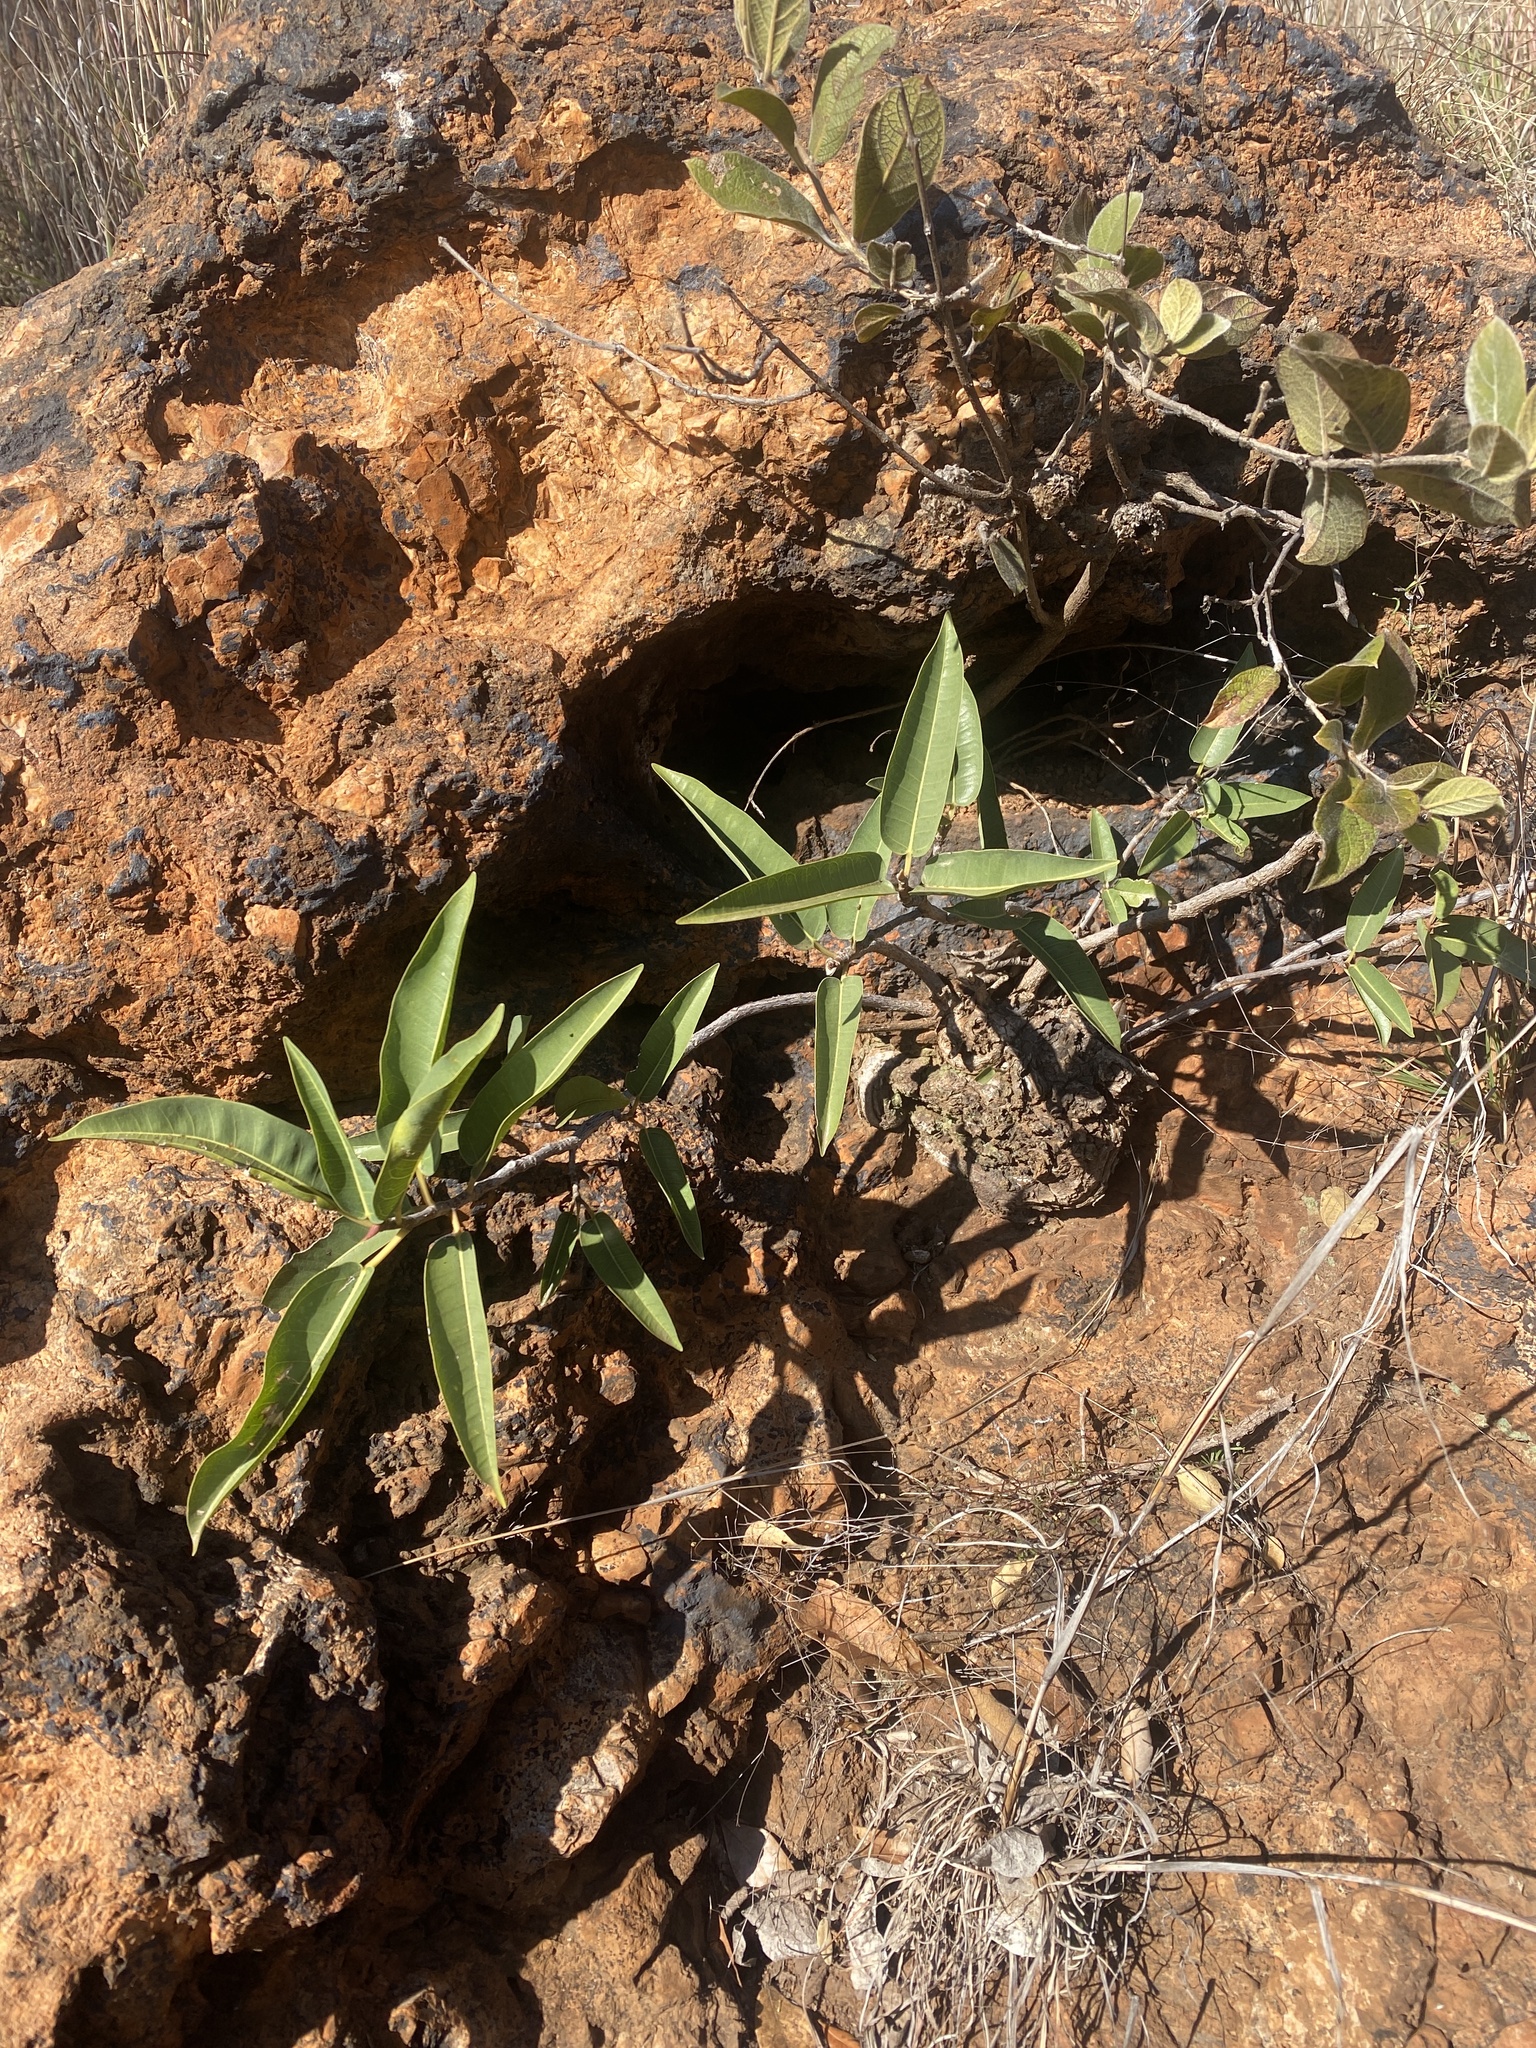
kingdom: Plantae
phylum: Tracheophyta
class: Magnoliopsida
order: Rosales
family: Moraceae
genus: Ficus
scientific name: Ficus salicifolia
